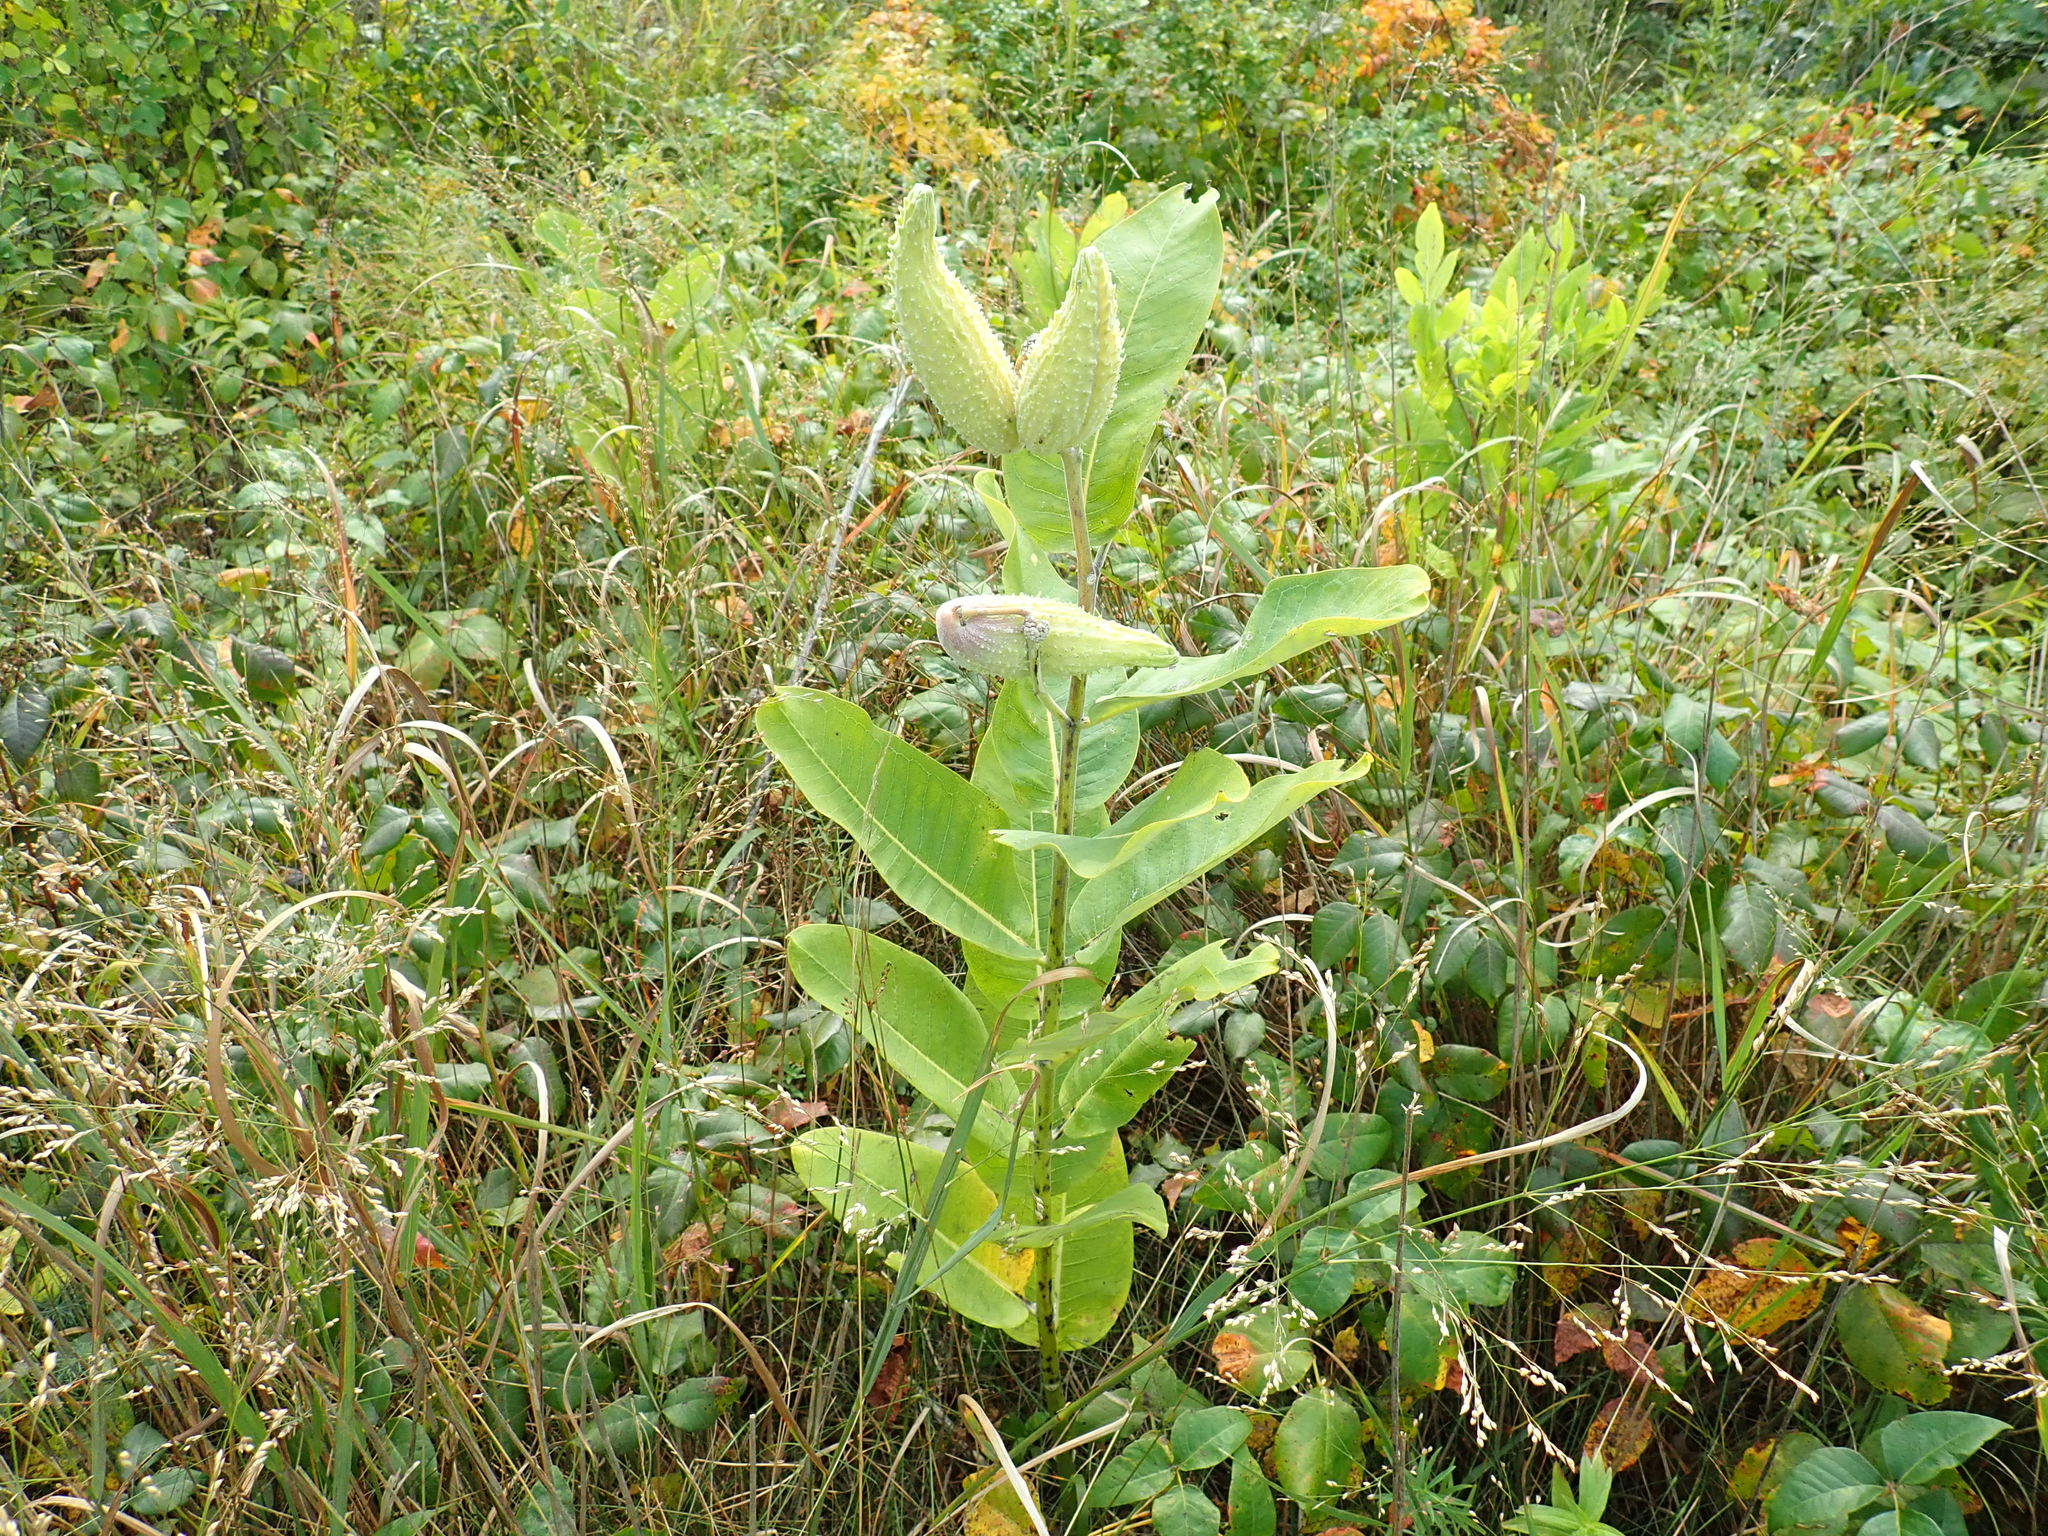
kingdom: Plantae
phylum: Tracheophyta
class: Magnoliopsida
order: Gentianales
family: Apocynaceae
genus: Asclepias
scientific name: Asclepias syriaca
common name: Common milkweed
